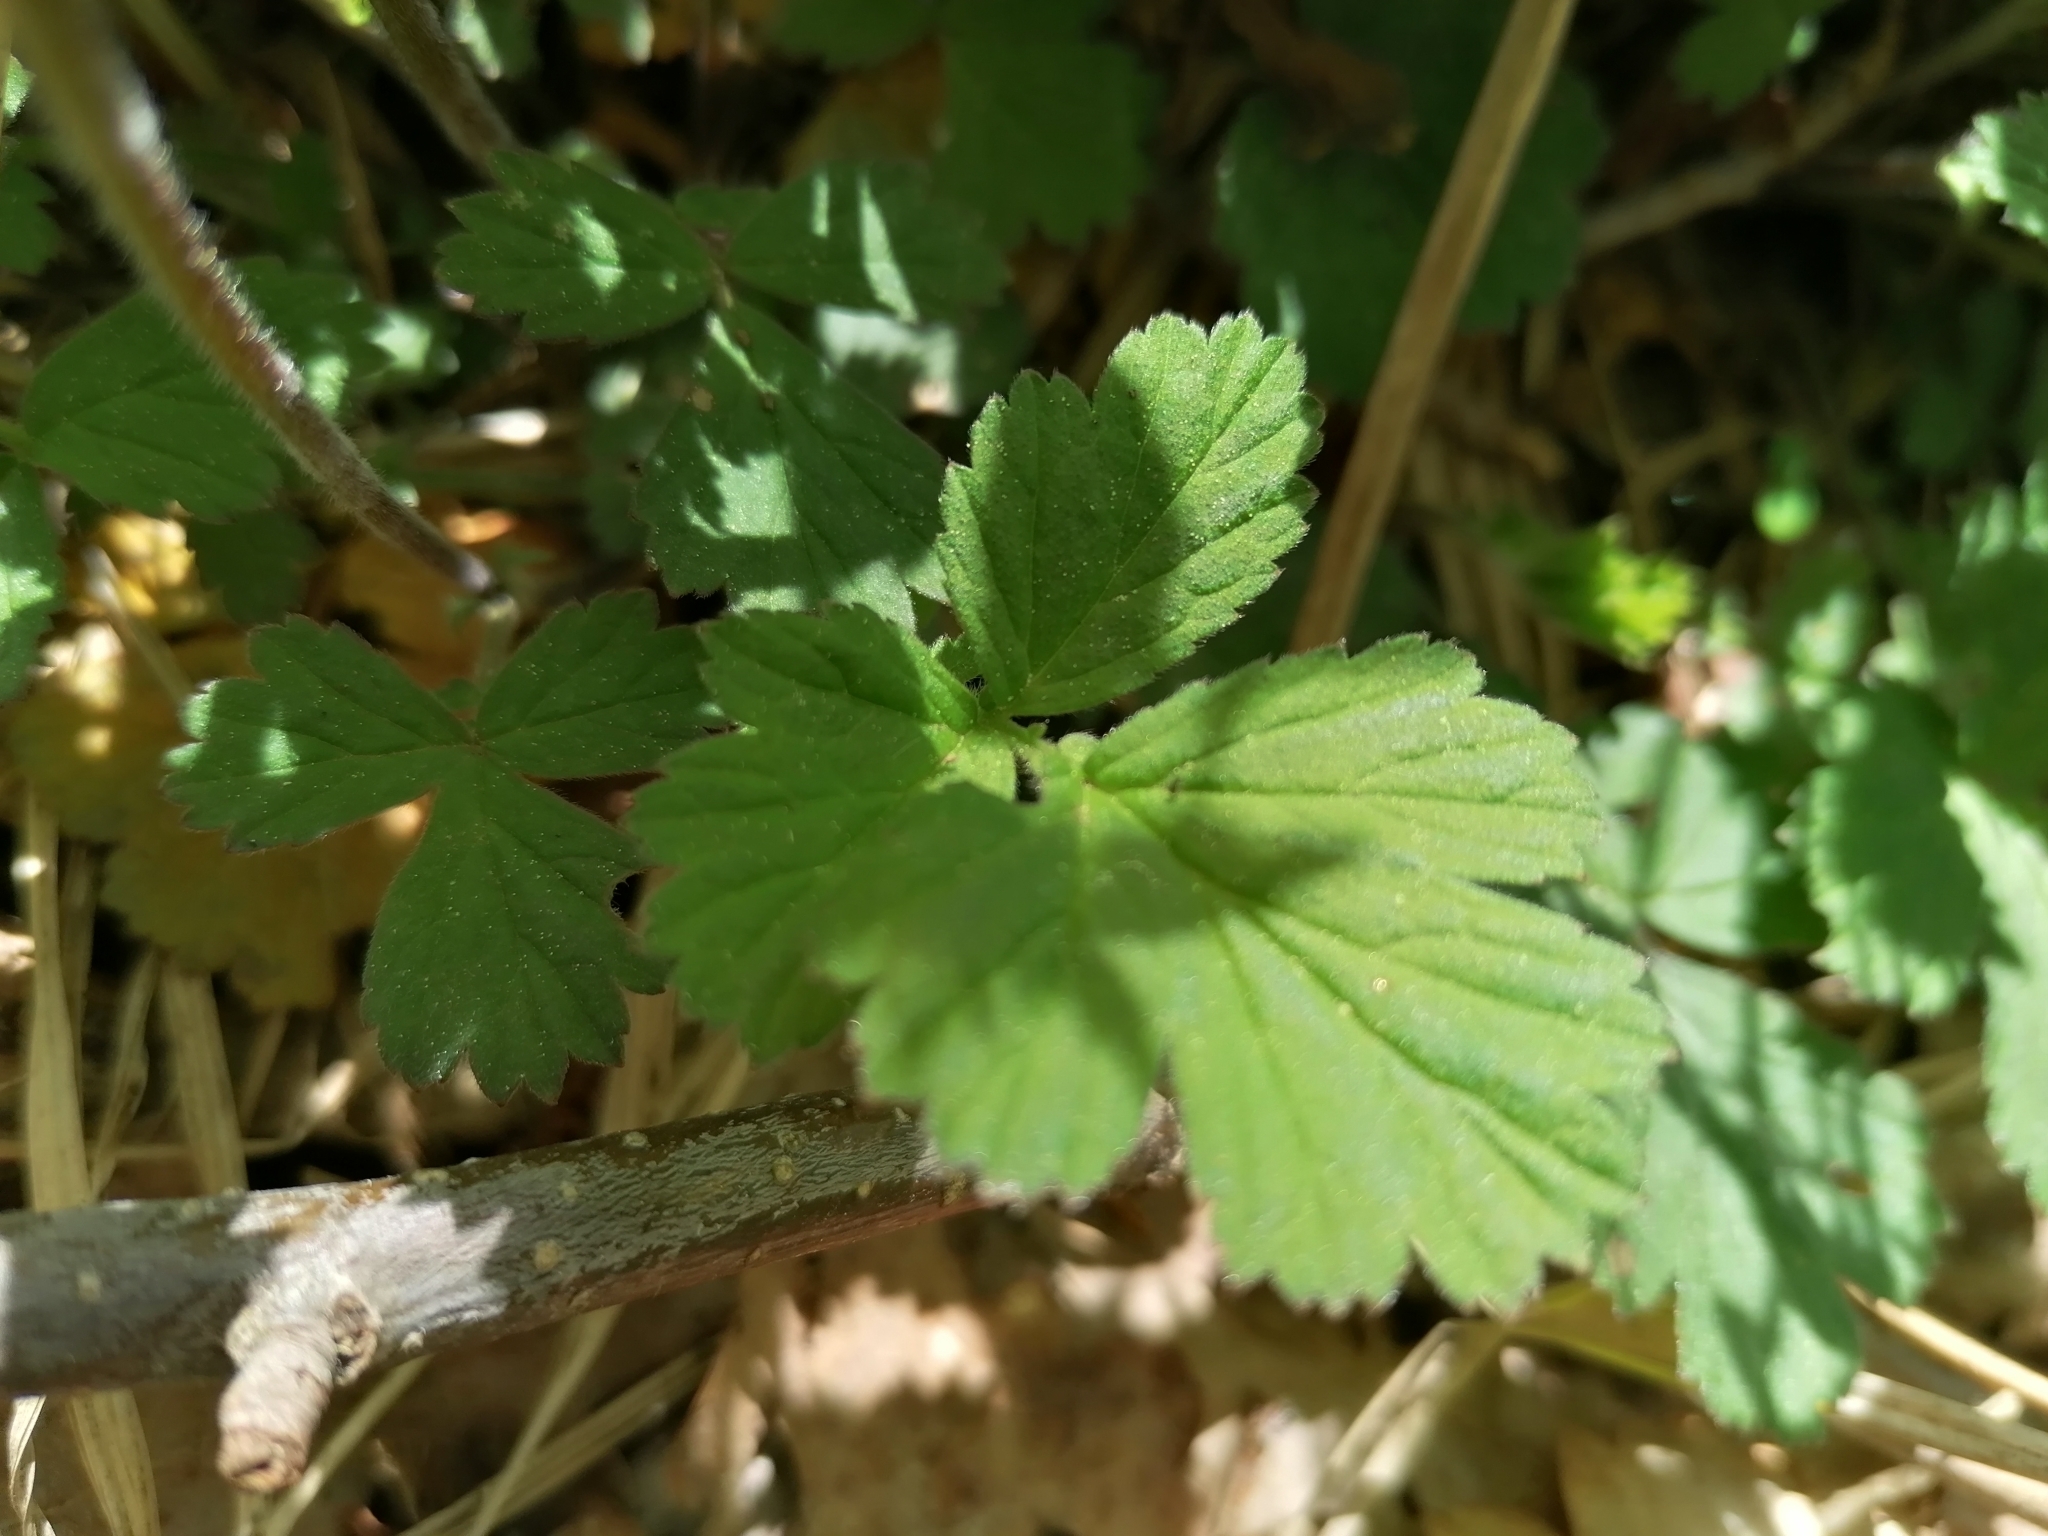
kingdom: Plantae
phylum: Tracheophyta
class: Magnoliopsida
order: Rosales
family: Rosaceae
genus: Geum
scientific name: Geum rivale
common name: Water avens
